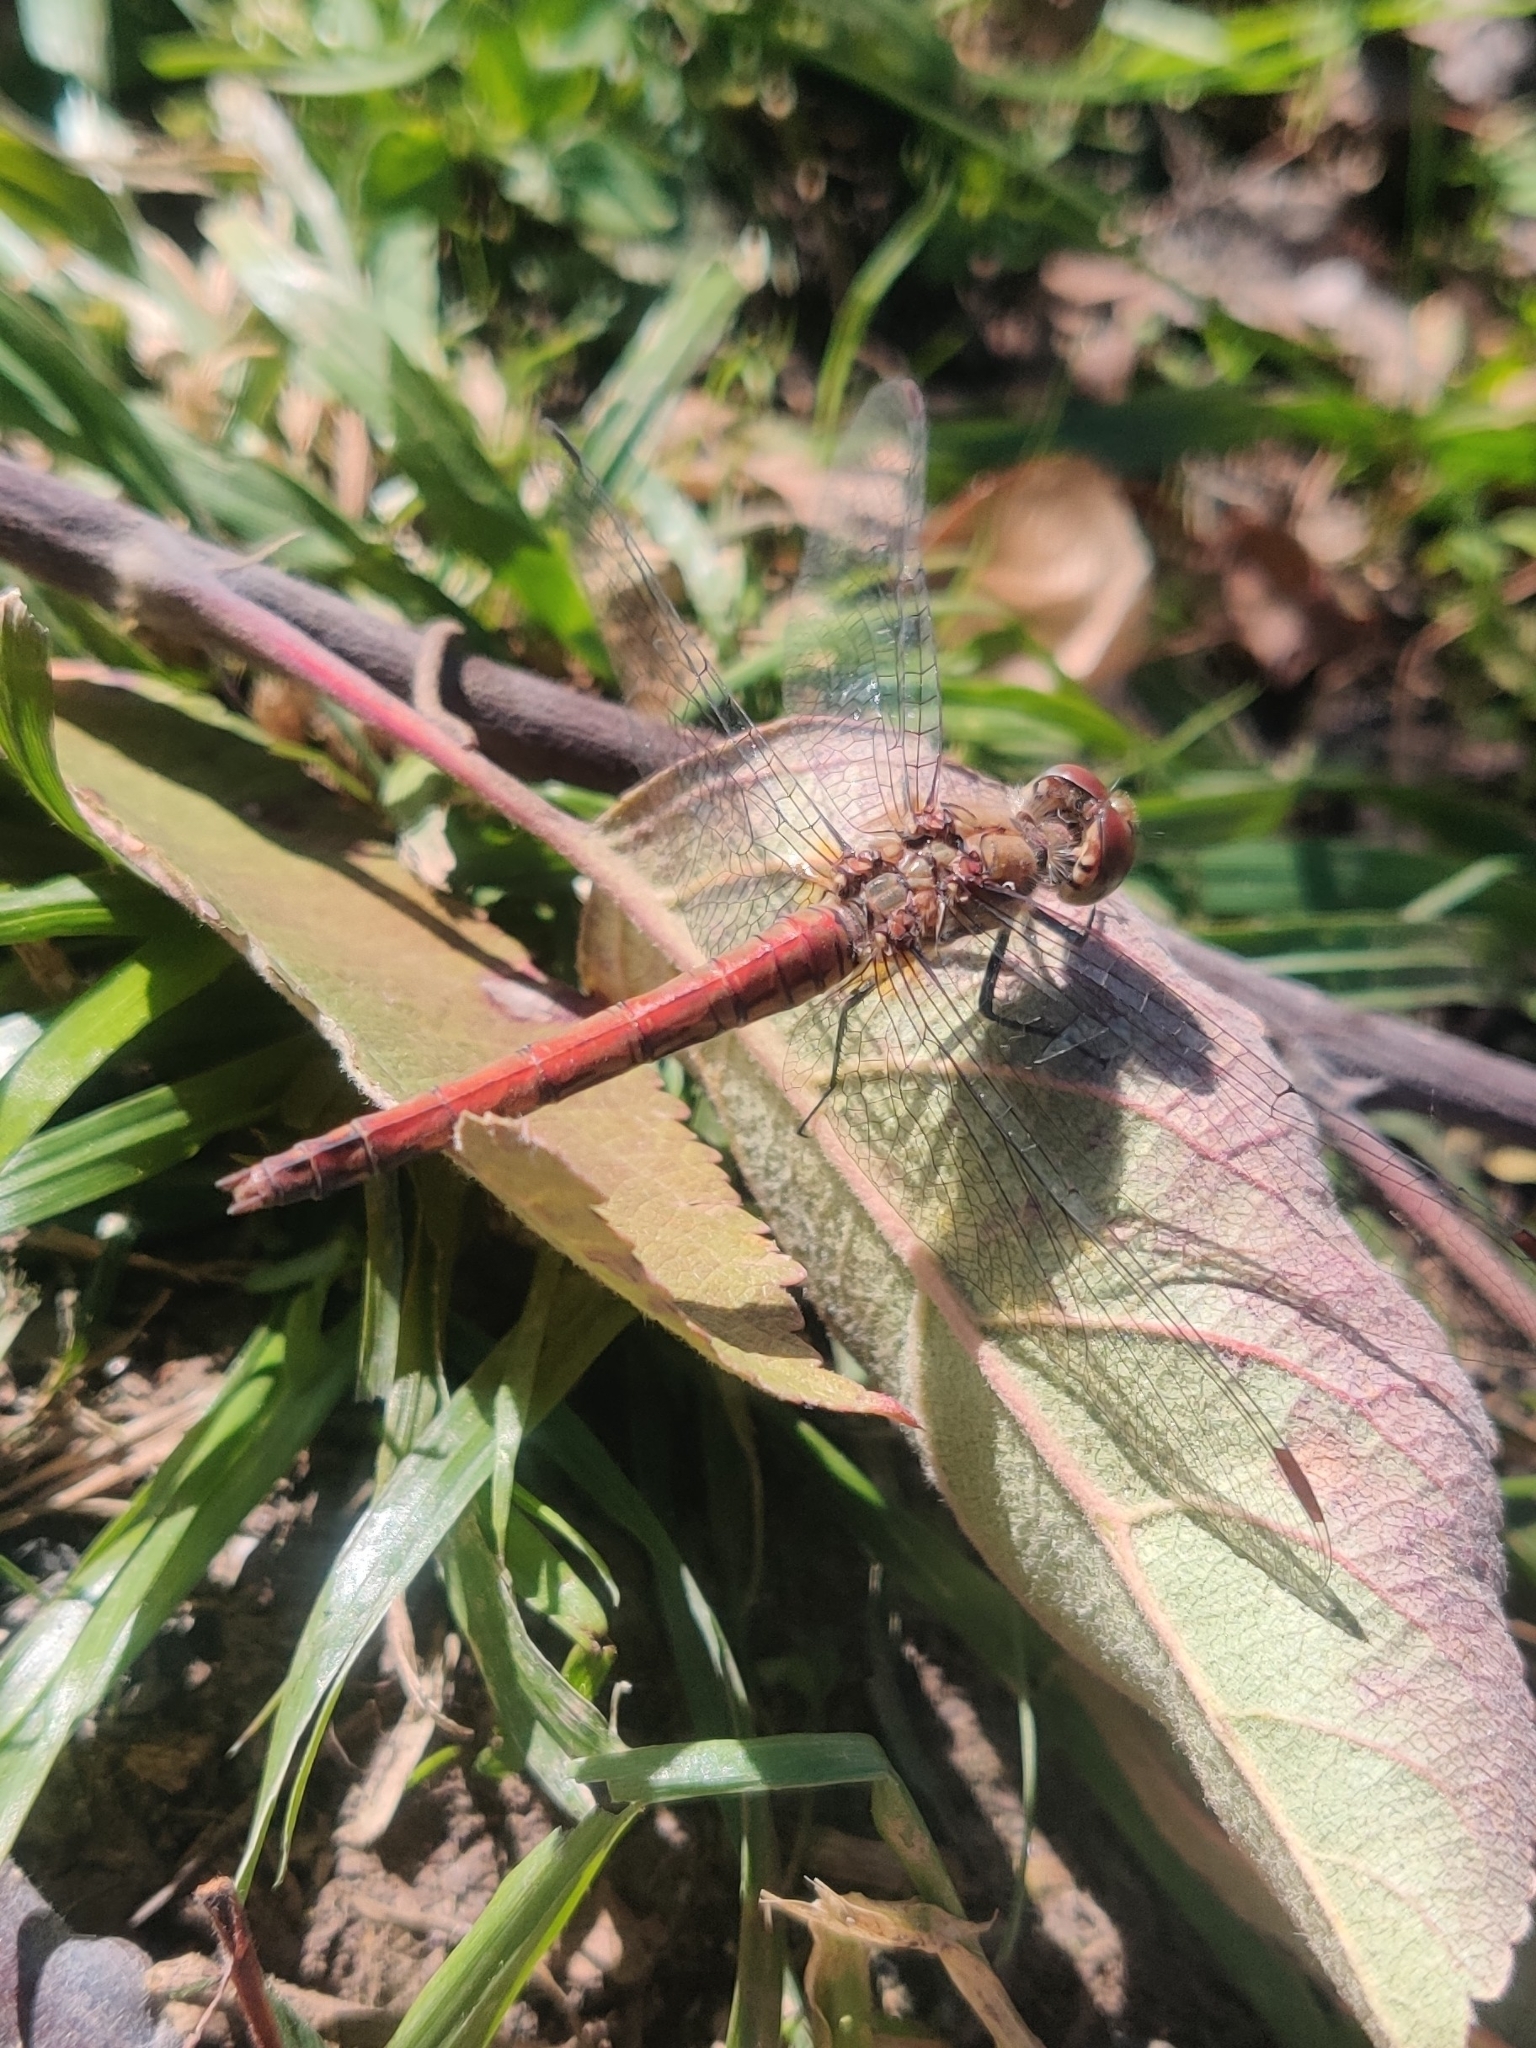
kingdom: Animalia
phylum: Arthropoda
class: Insecta
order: Odonata
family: Libellulidae
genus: Sympetrum
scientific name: Sympetrum striolatum
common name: Common darter
